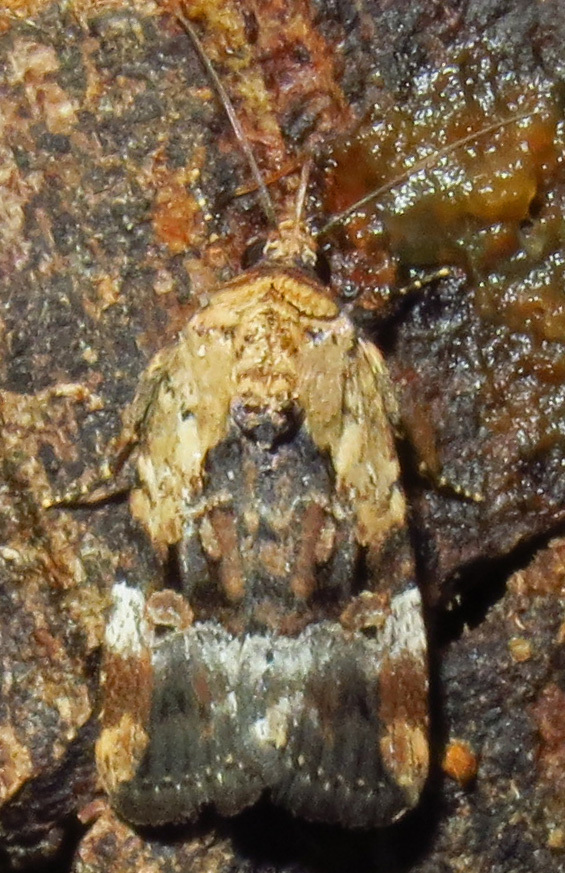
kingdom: Animalia
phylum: Arthropoda
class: Insecta
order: Lepidoptera
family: Noctuidae
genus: Elaphria
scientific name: Elaphria chalcedonia
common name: Chalcedony midget
